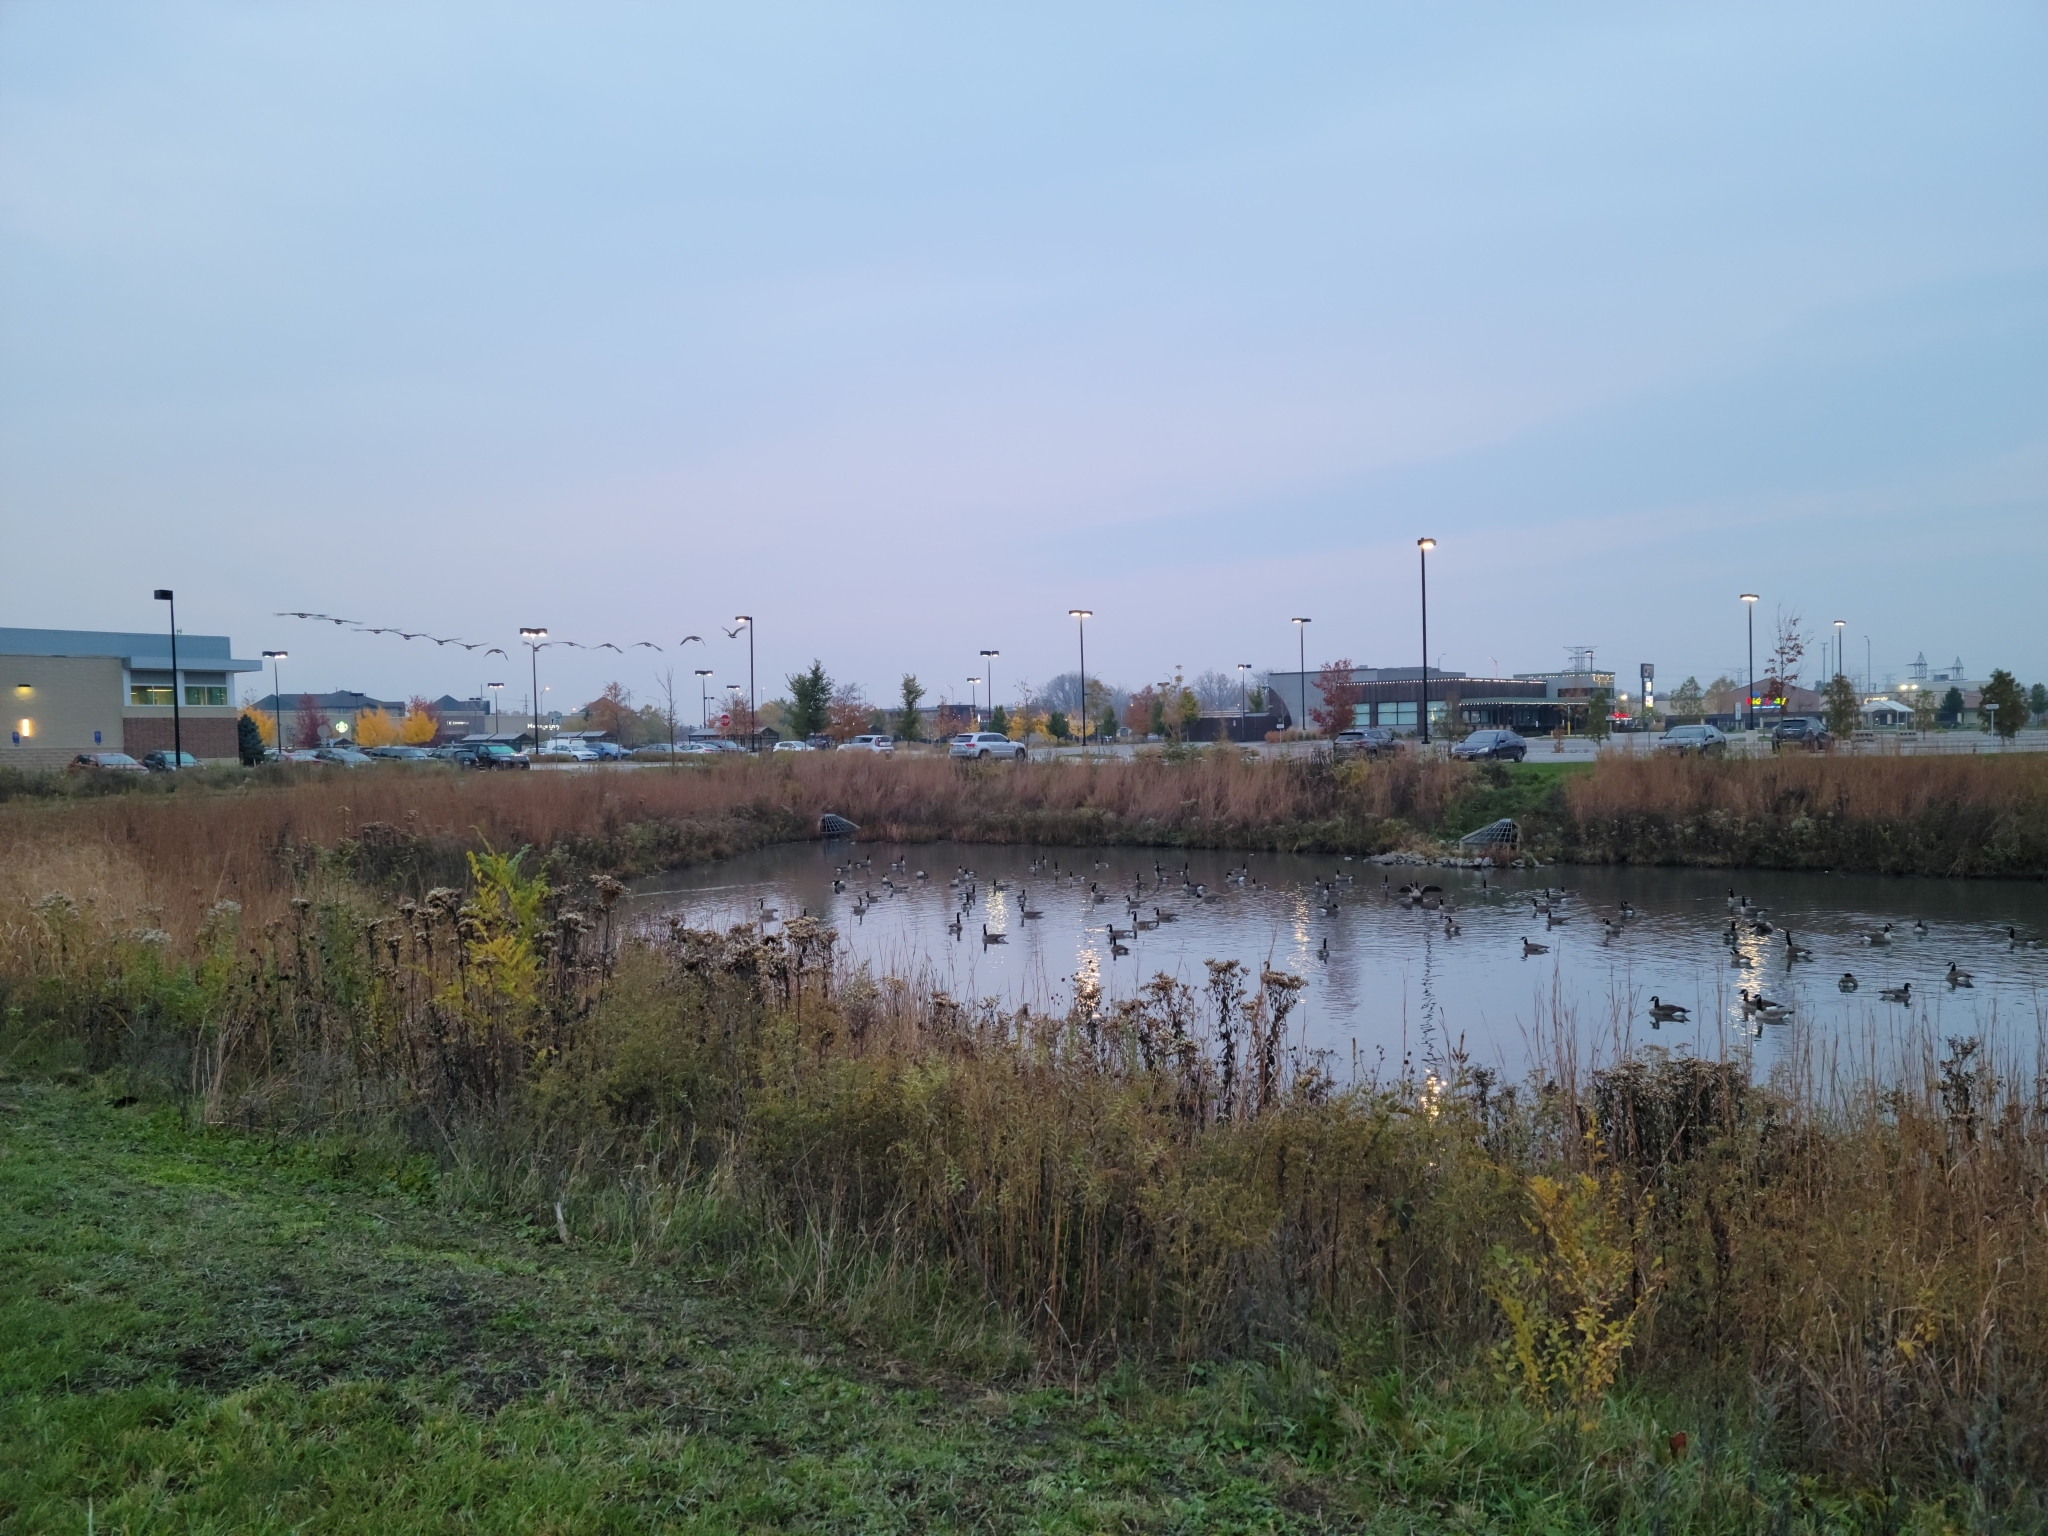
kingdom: Animalia
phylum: Chordata
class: Aves
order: Anseriformes
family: Anatidae
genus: Branta
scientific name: Branta canadensis
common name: Canada goose
